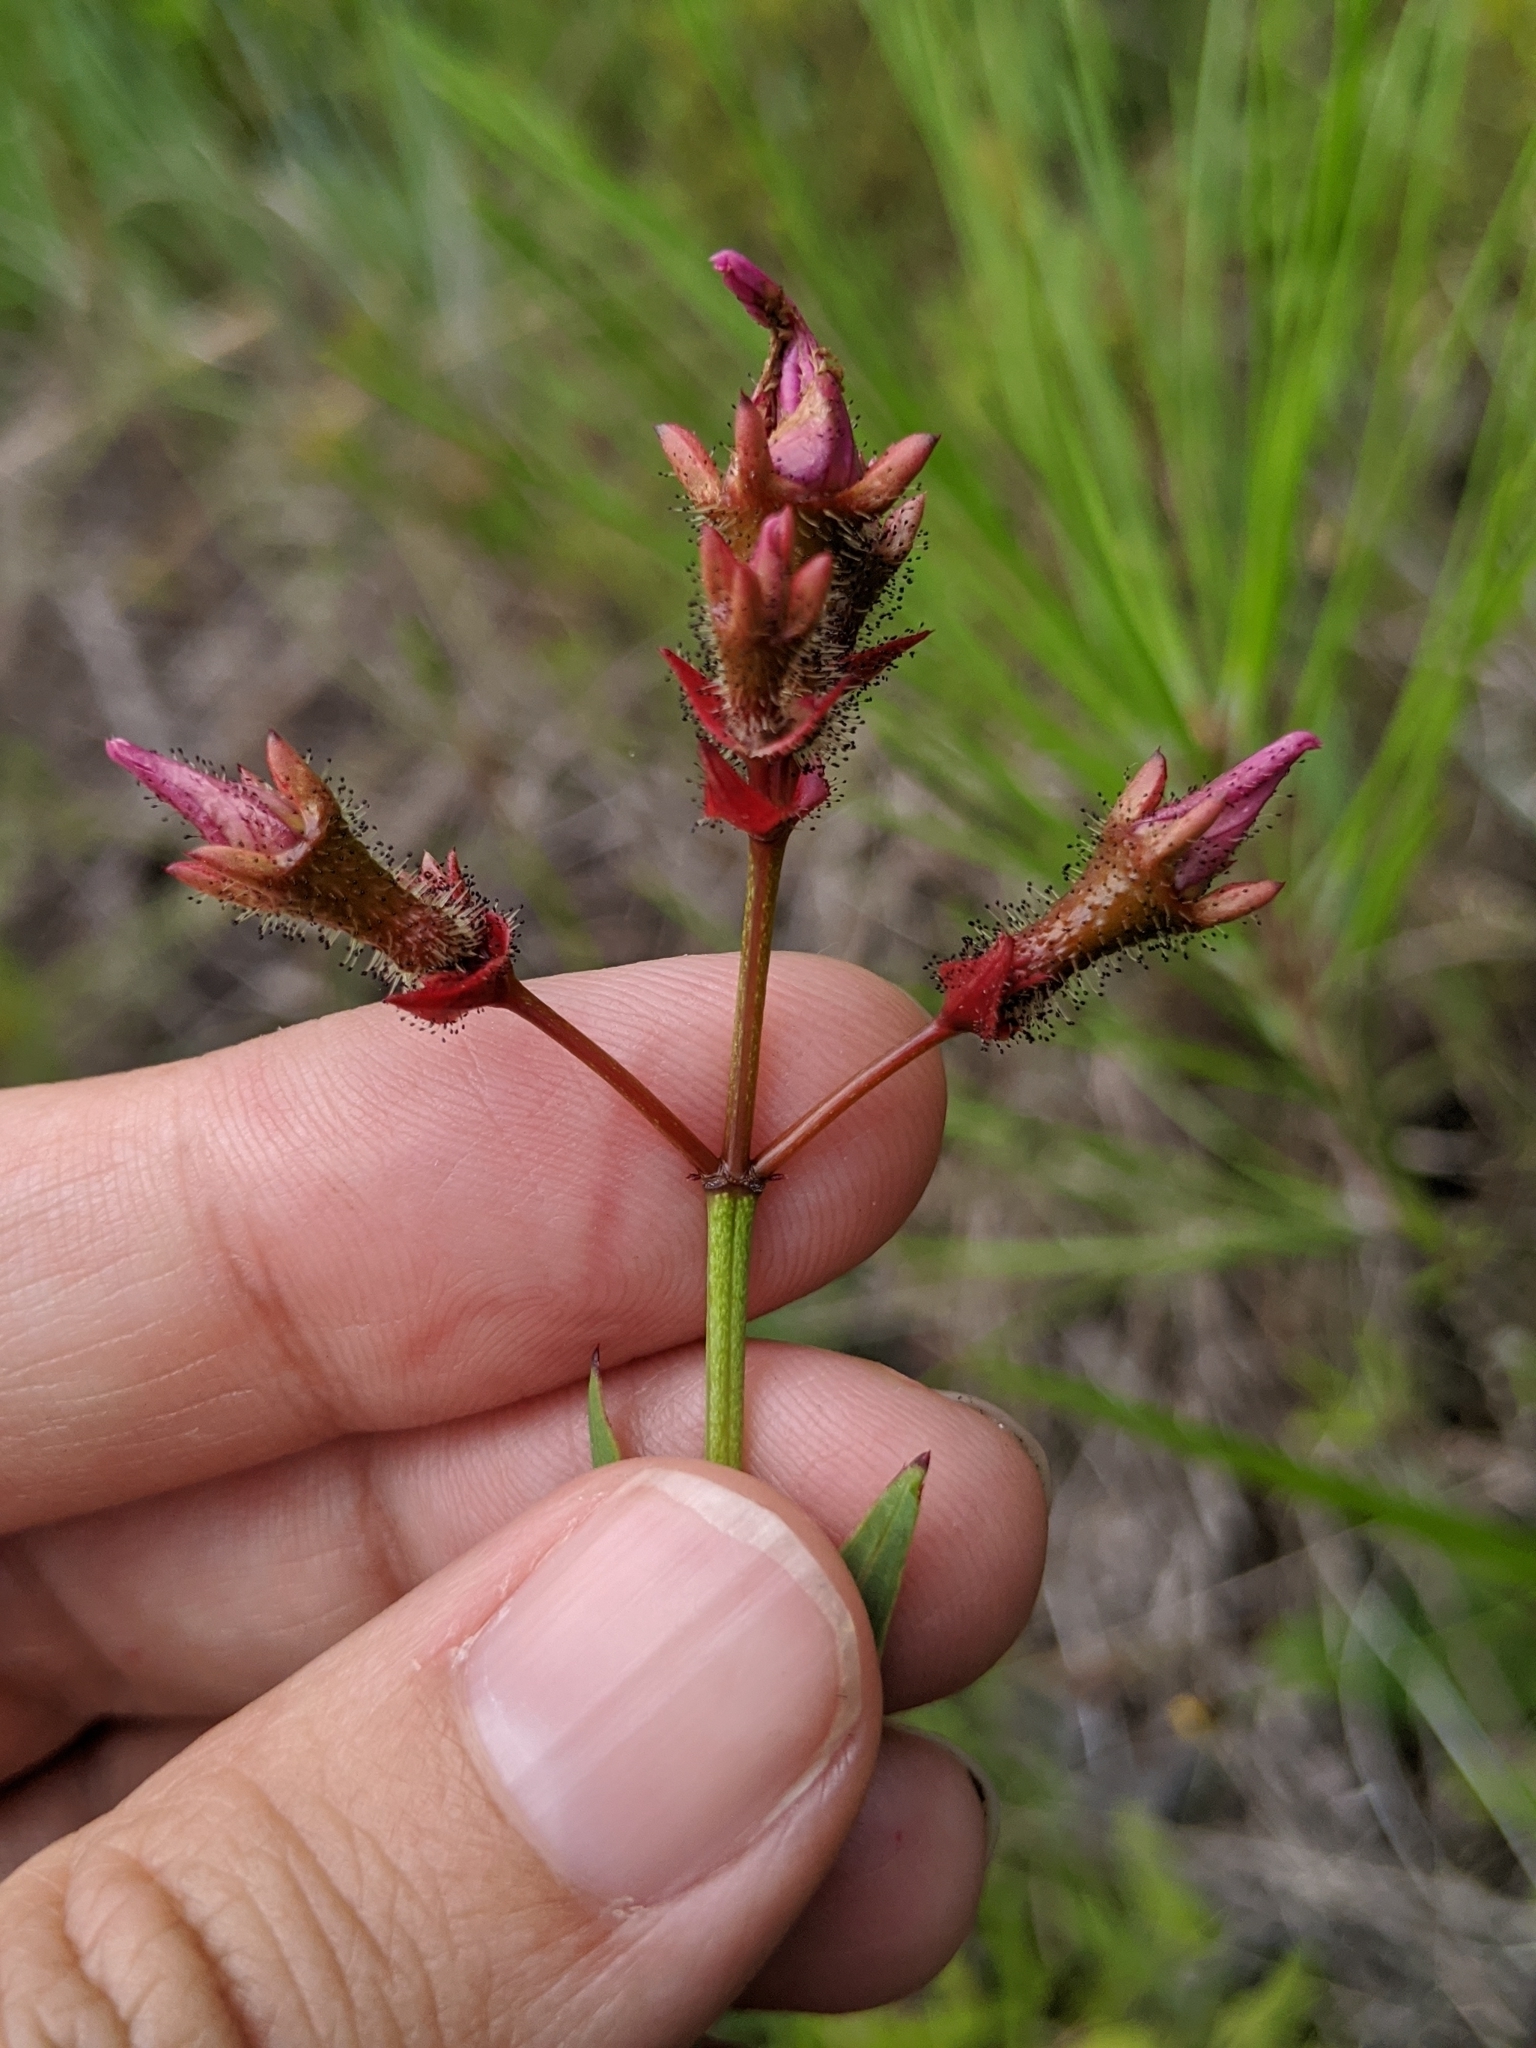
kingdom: Plantae
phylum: Tracheophyta
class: Magnoliopsida
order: Myrtales
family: Melastomataceae
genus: Rhexia
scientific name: Rhexia alifanus
